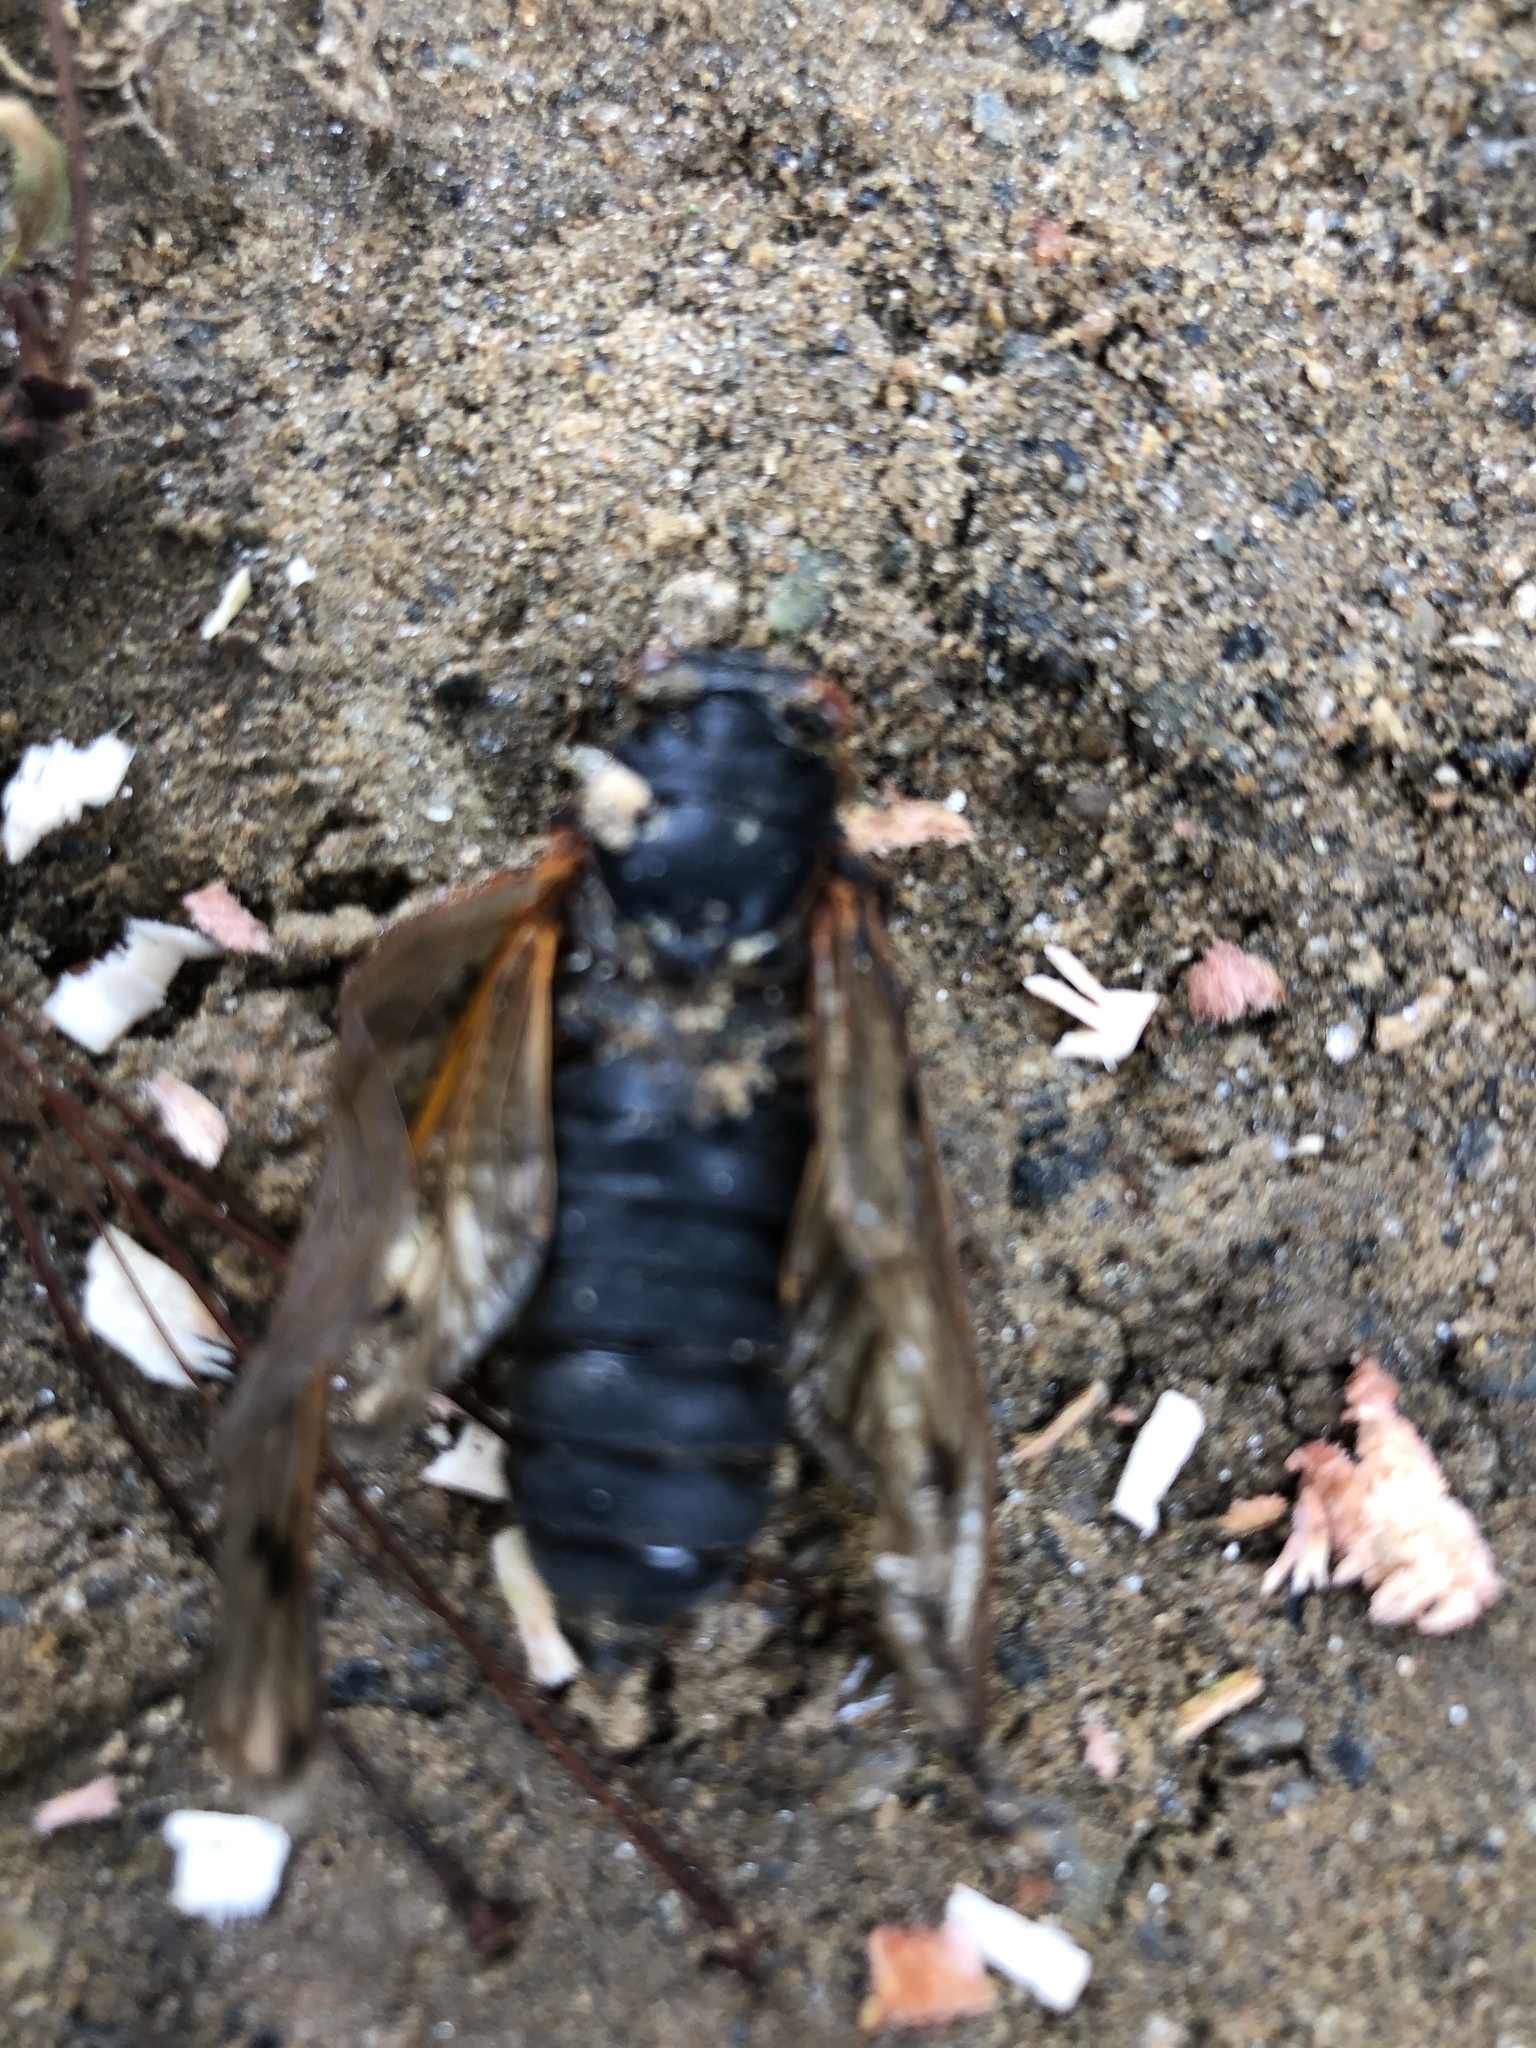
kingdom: Animalia
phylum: Arthropoda
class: Insecta
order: Hemiptera
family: Cicadidae
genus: Magicicada
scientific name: Magicicada
